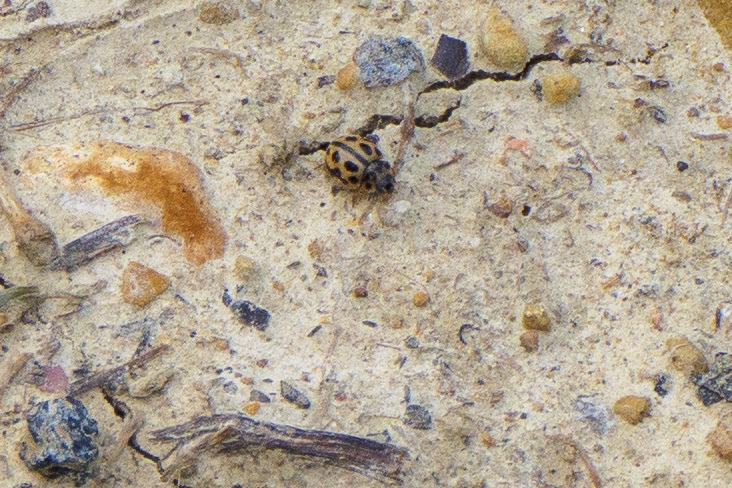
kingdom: Animalia
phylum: Arthropoda
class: Insecta
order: Coleoptera
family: Coccinellidae
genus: Tytthaspis
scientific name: Tytthaspis sedecimpunctata
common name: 16-spot ladybird
